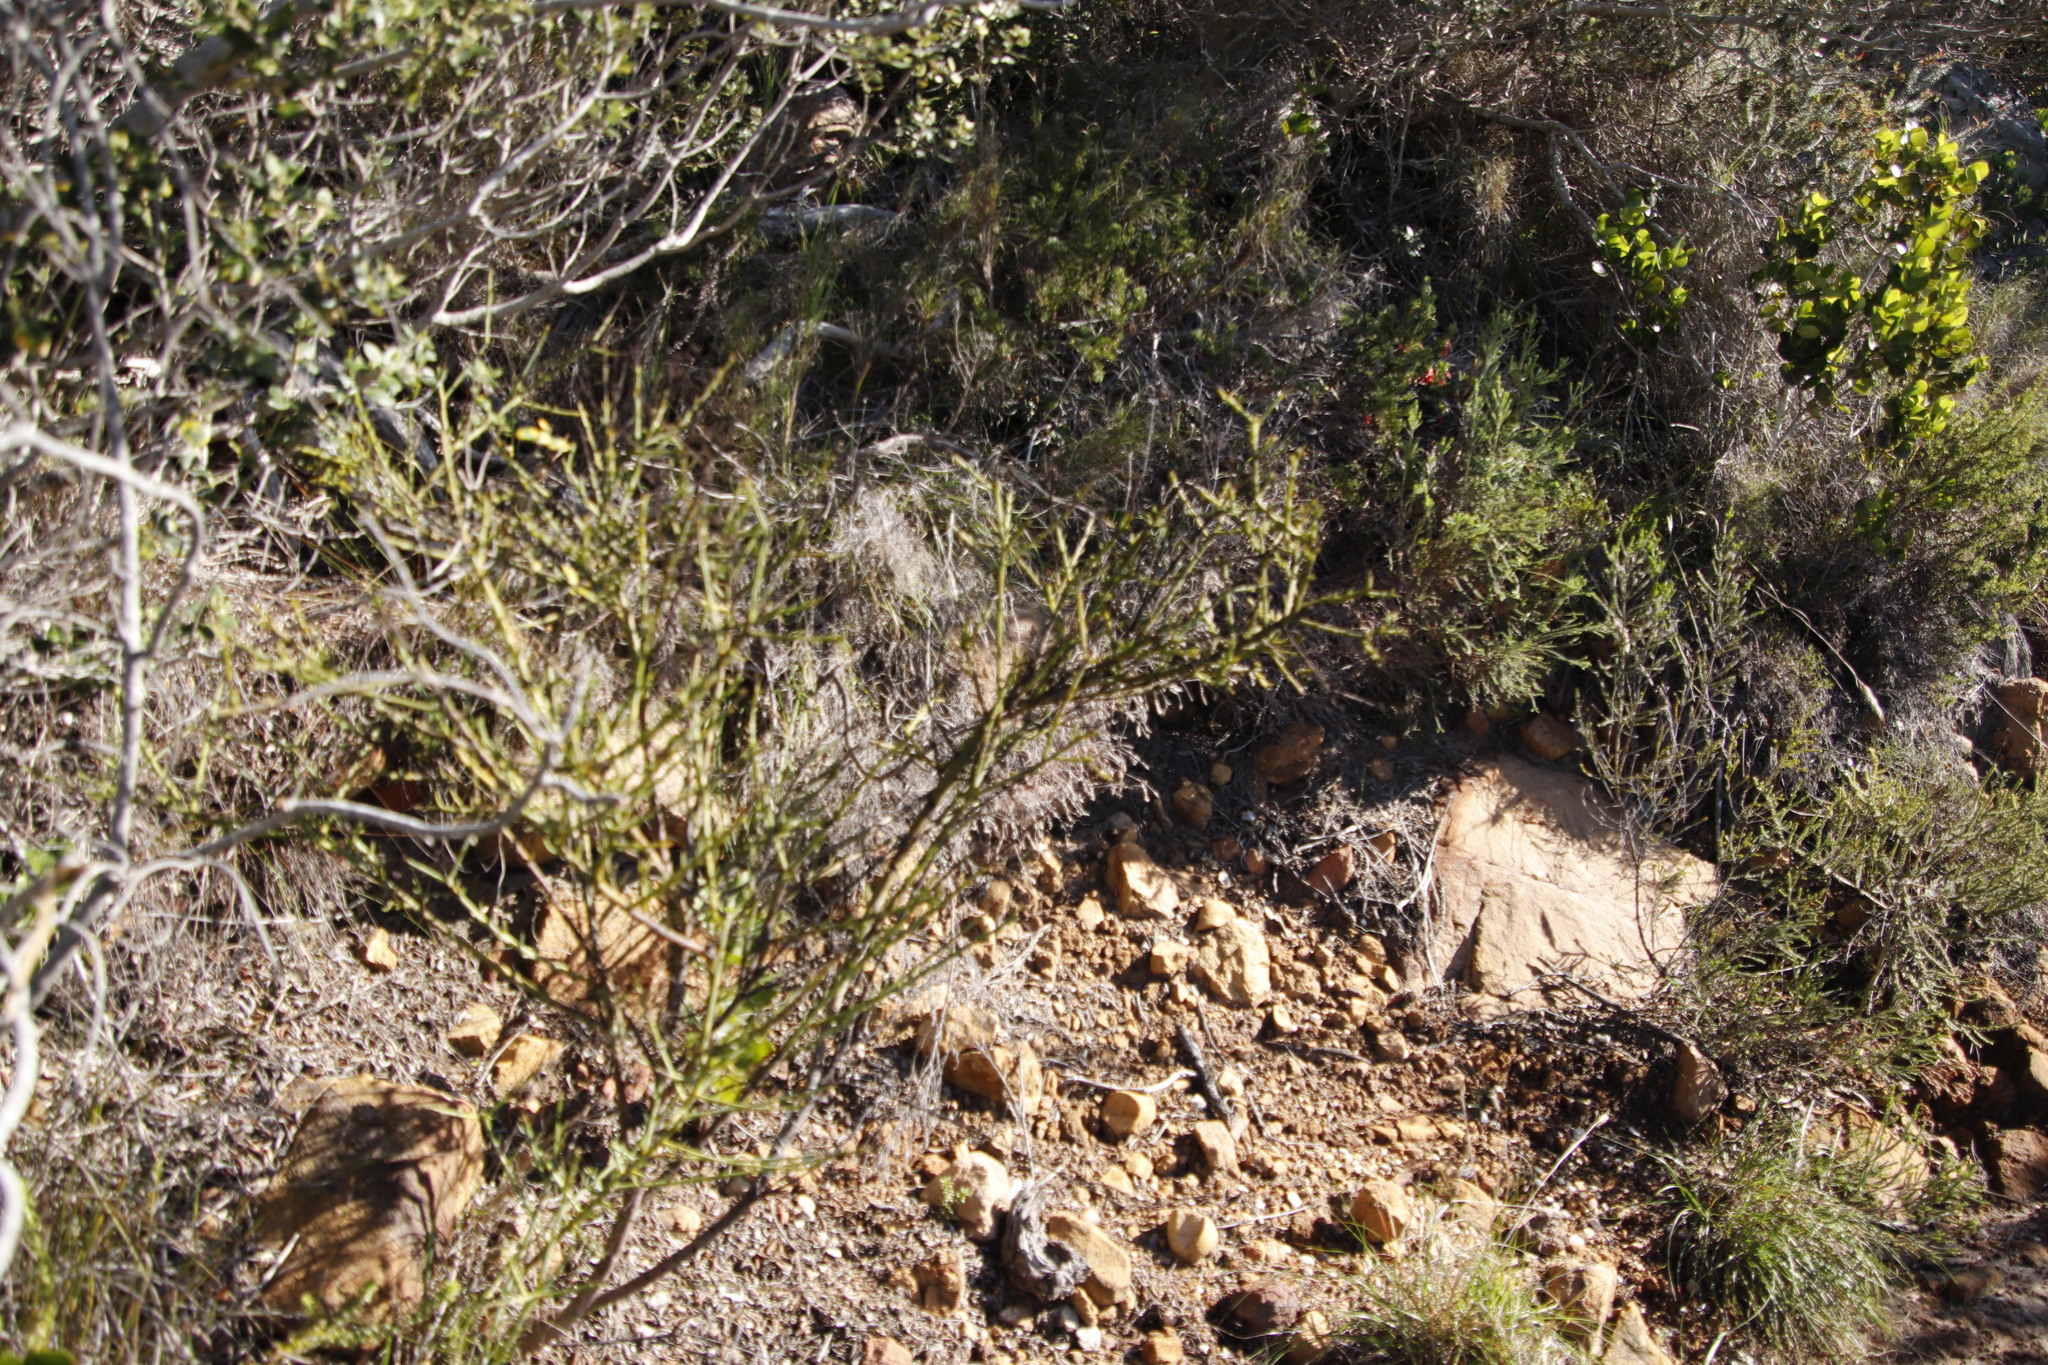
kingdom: Plantae
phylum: Tracheophyta
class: Magnoliopsida
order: Santalales
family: Thesiaceae
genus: Thesium
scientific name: Thesium strictum
